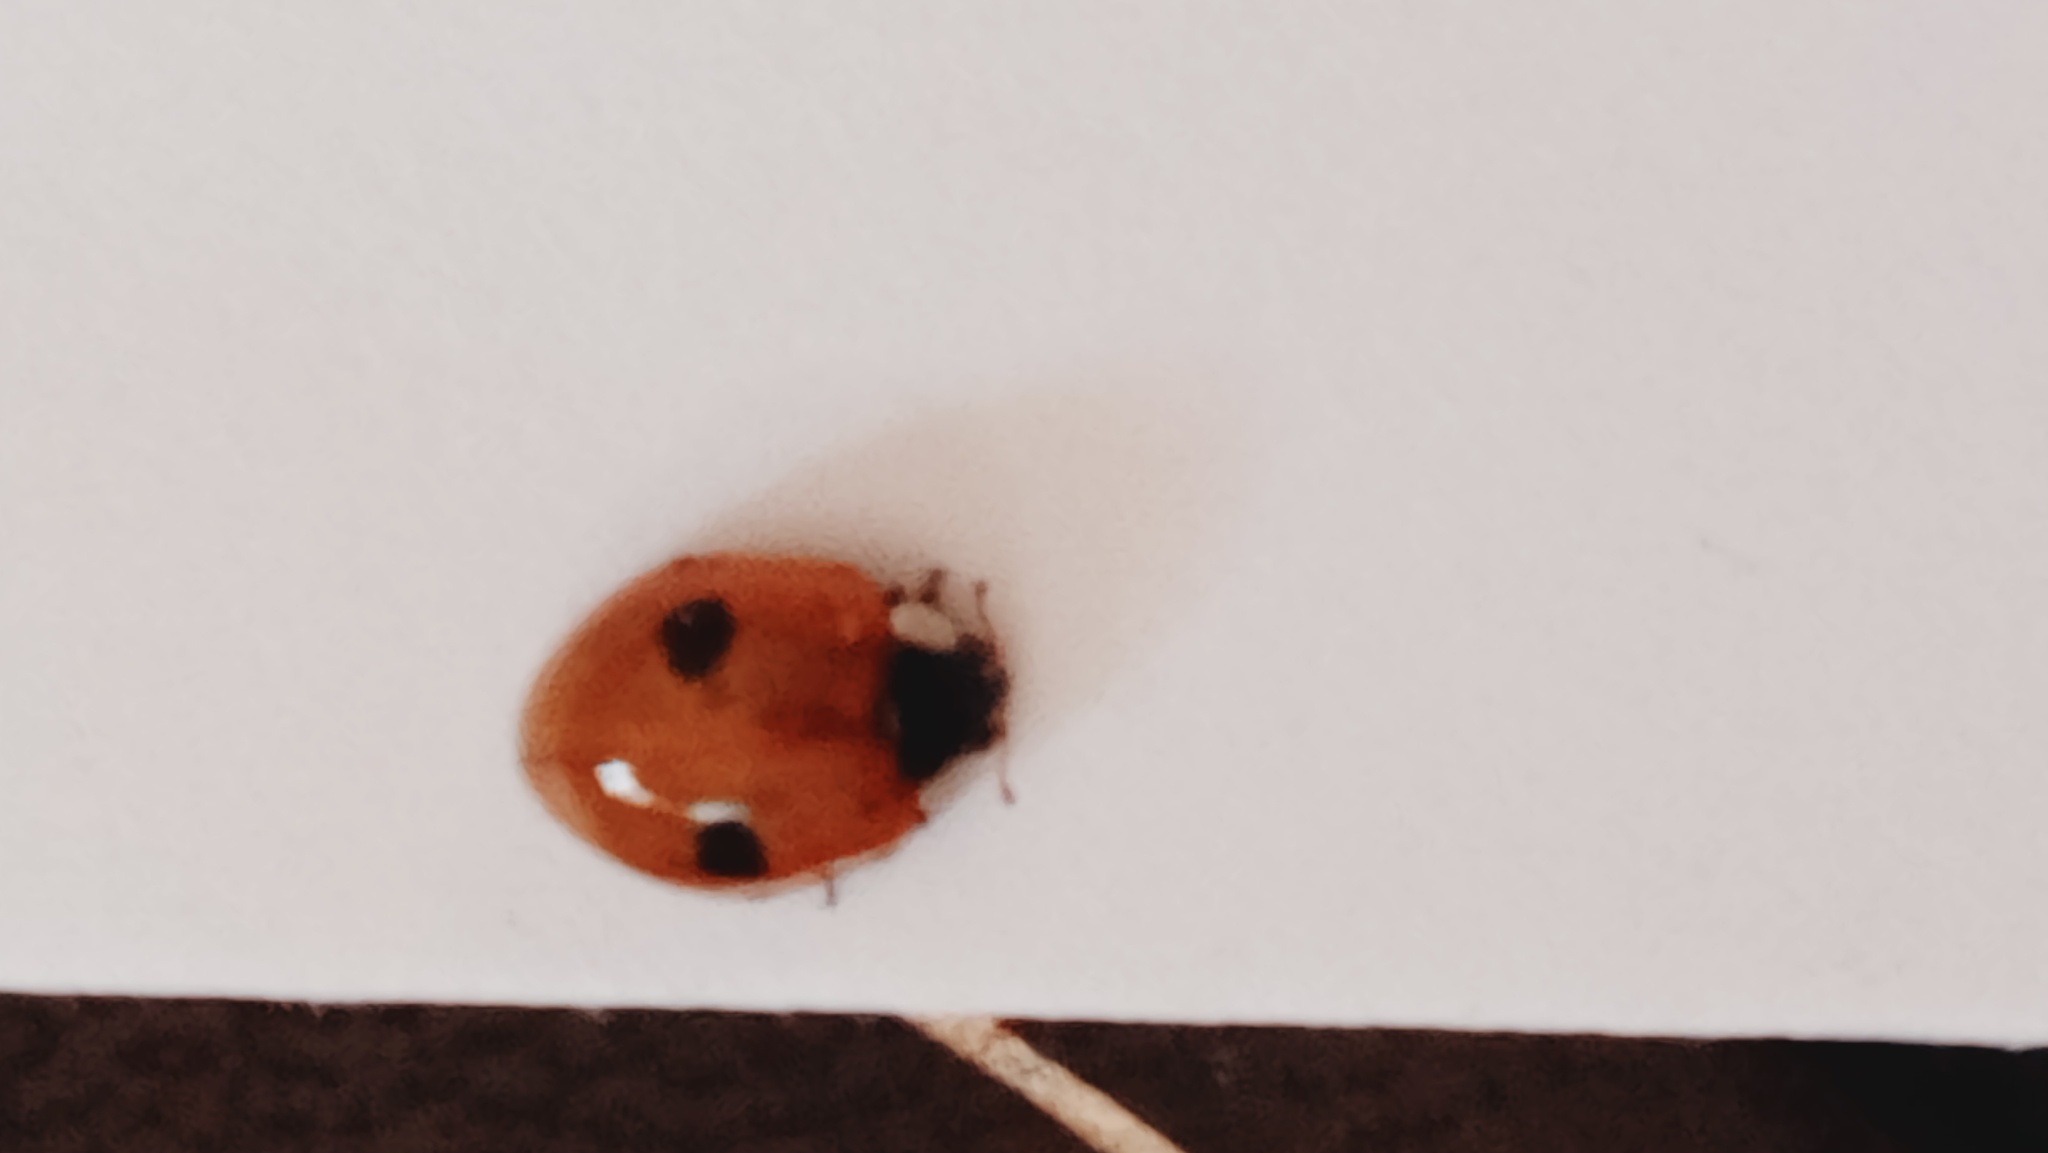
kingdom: Animalia
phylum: Arthropoda
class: Insecta
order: Coleoptera
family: Coccinellidae
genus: Adalia
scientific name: Adalia bipunctata
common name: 2-spot ladybird
